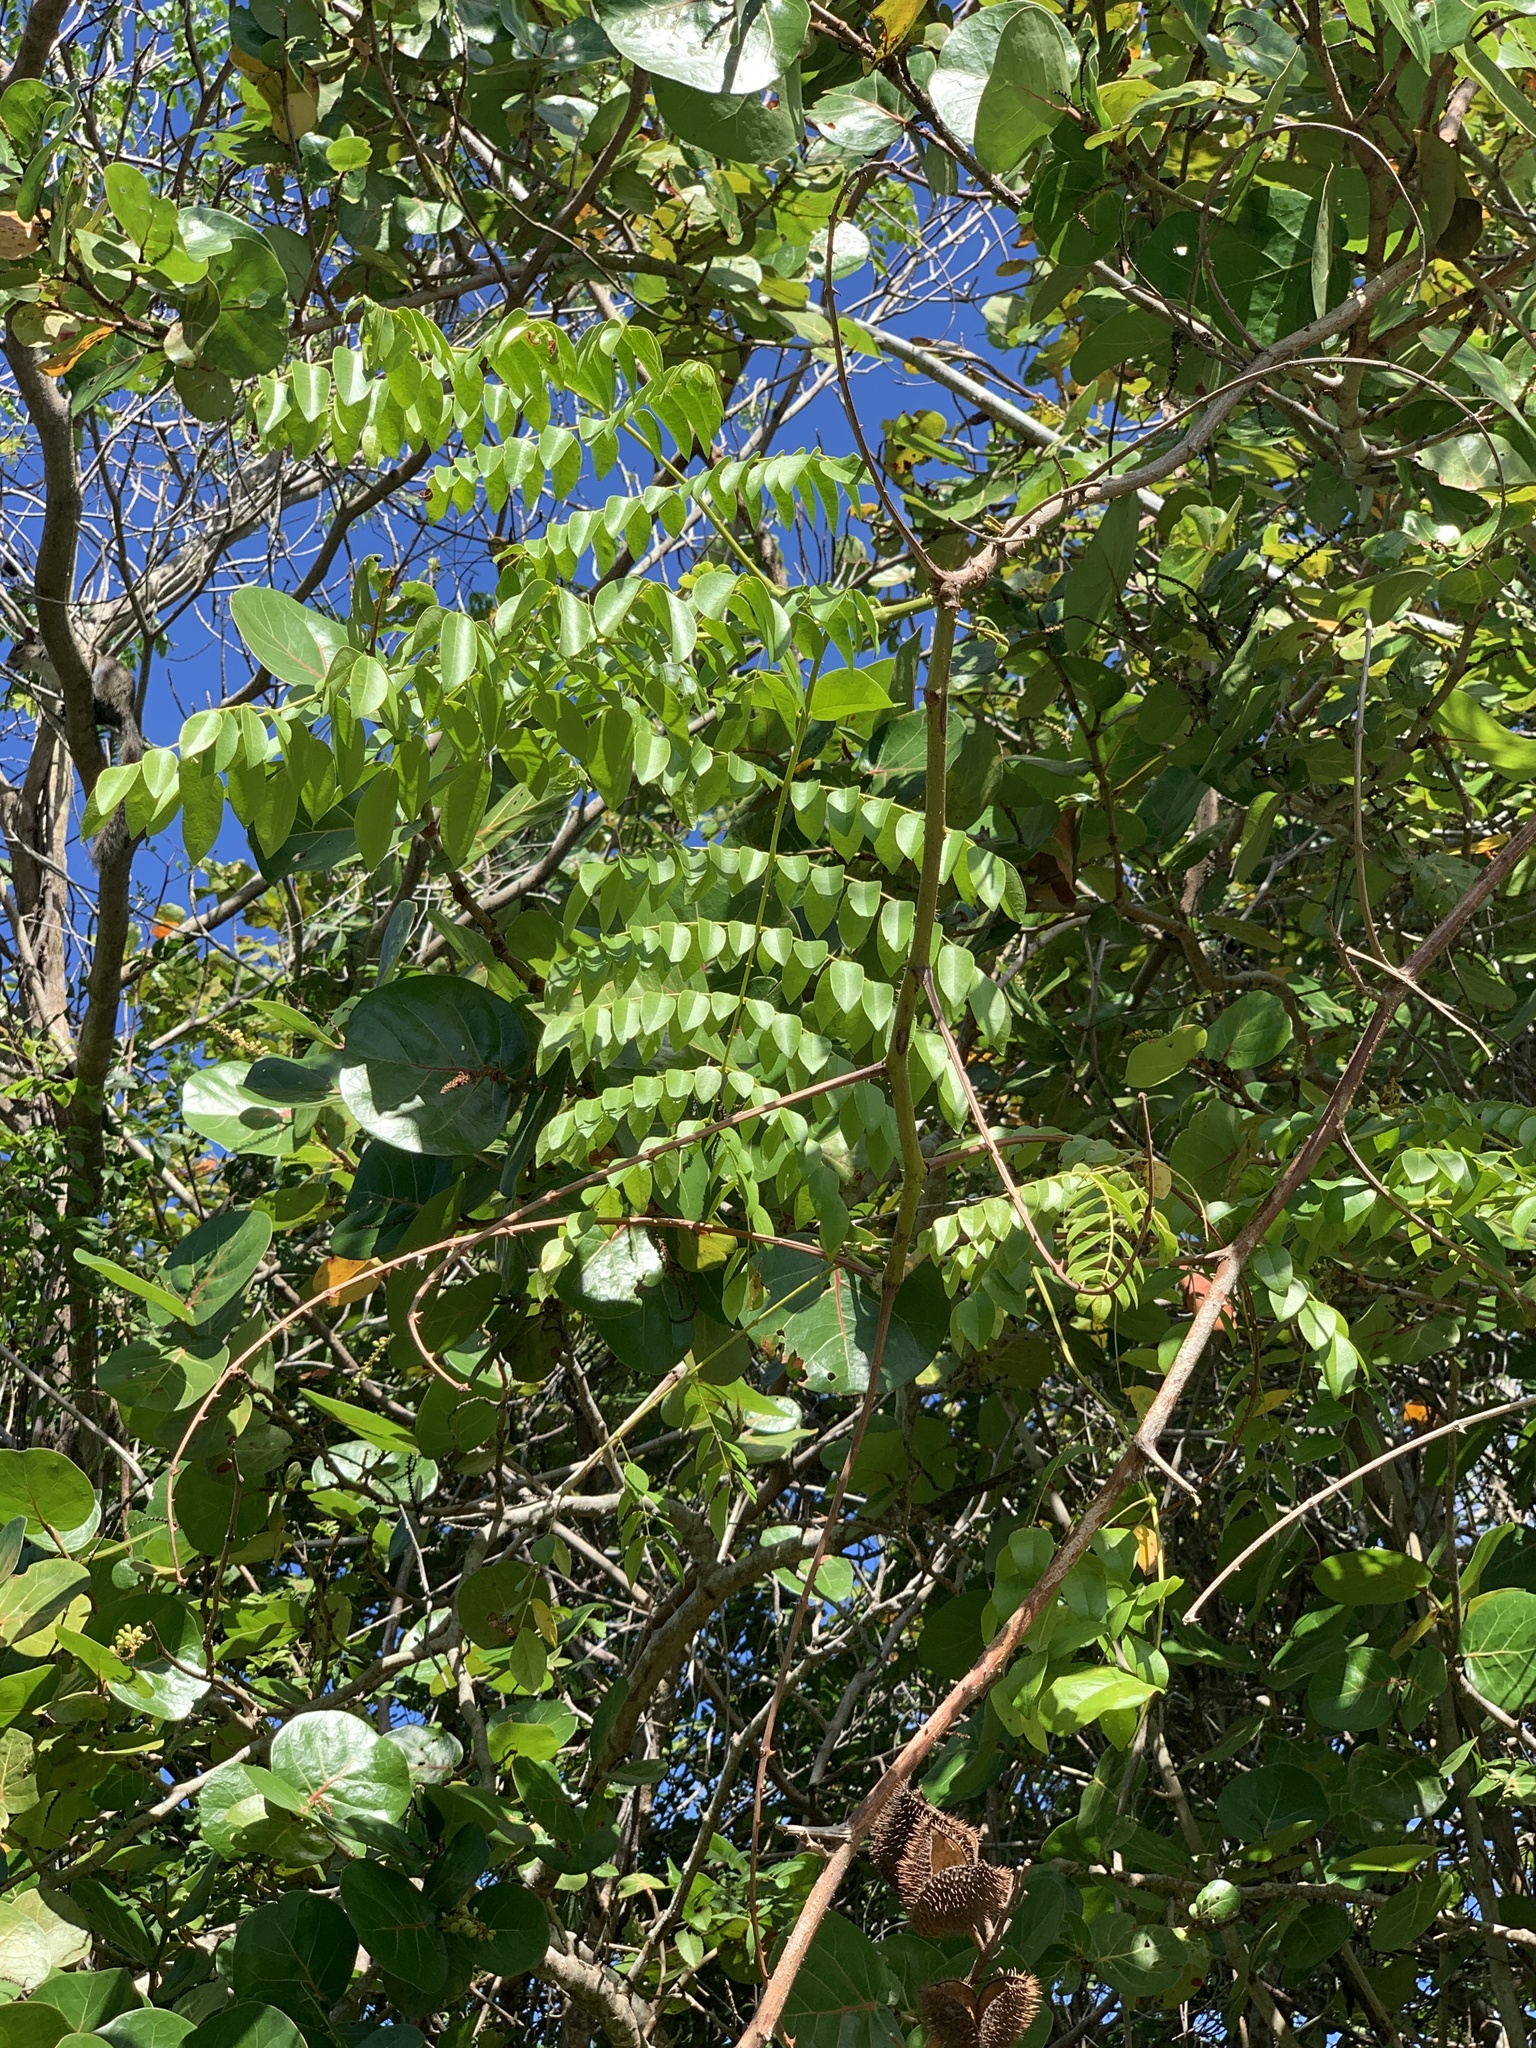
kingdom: Plantae
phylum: Tracheophyta
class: Magnoliopsida
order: Fabales
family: Fabaceae
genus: Guilandina
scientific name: Guilandina bonduc
